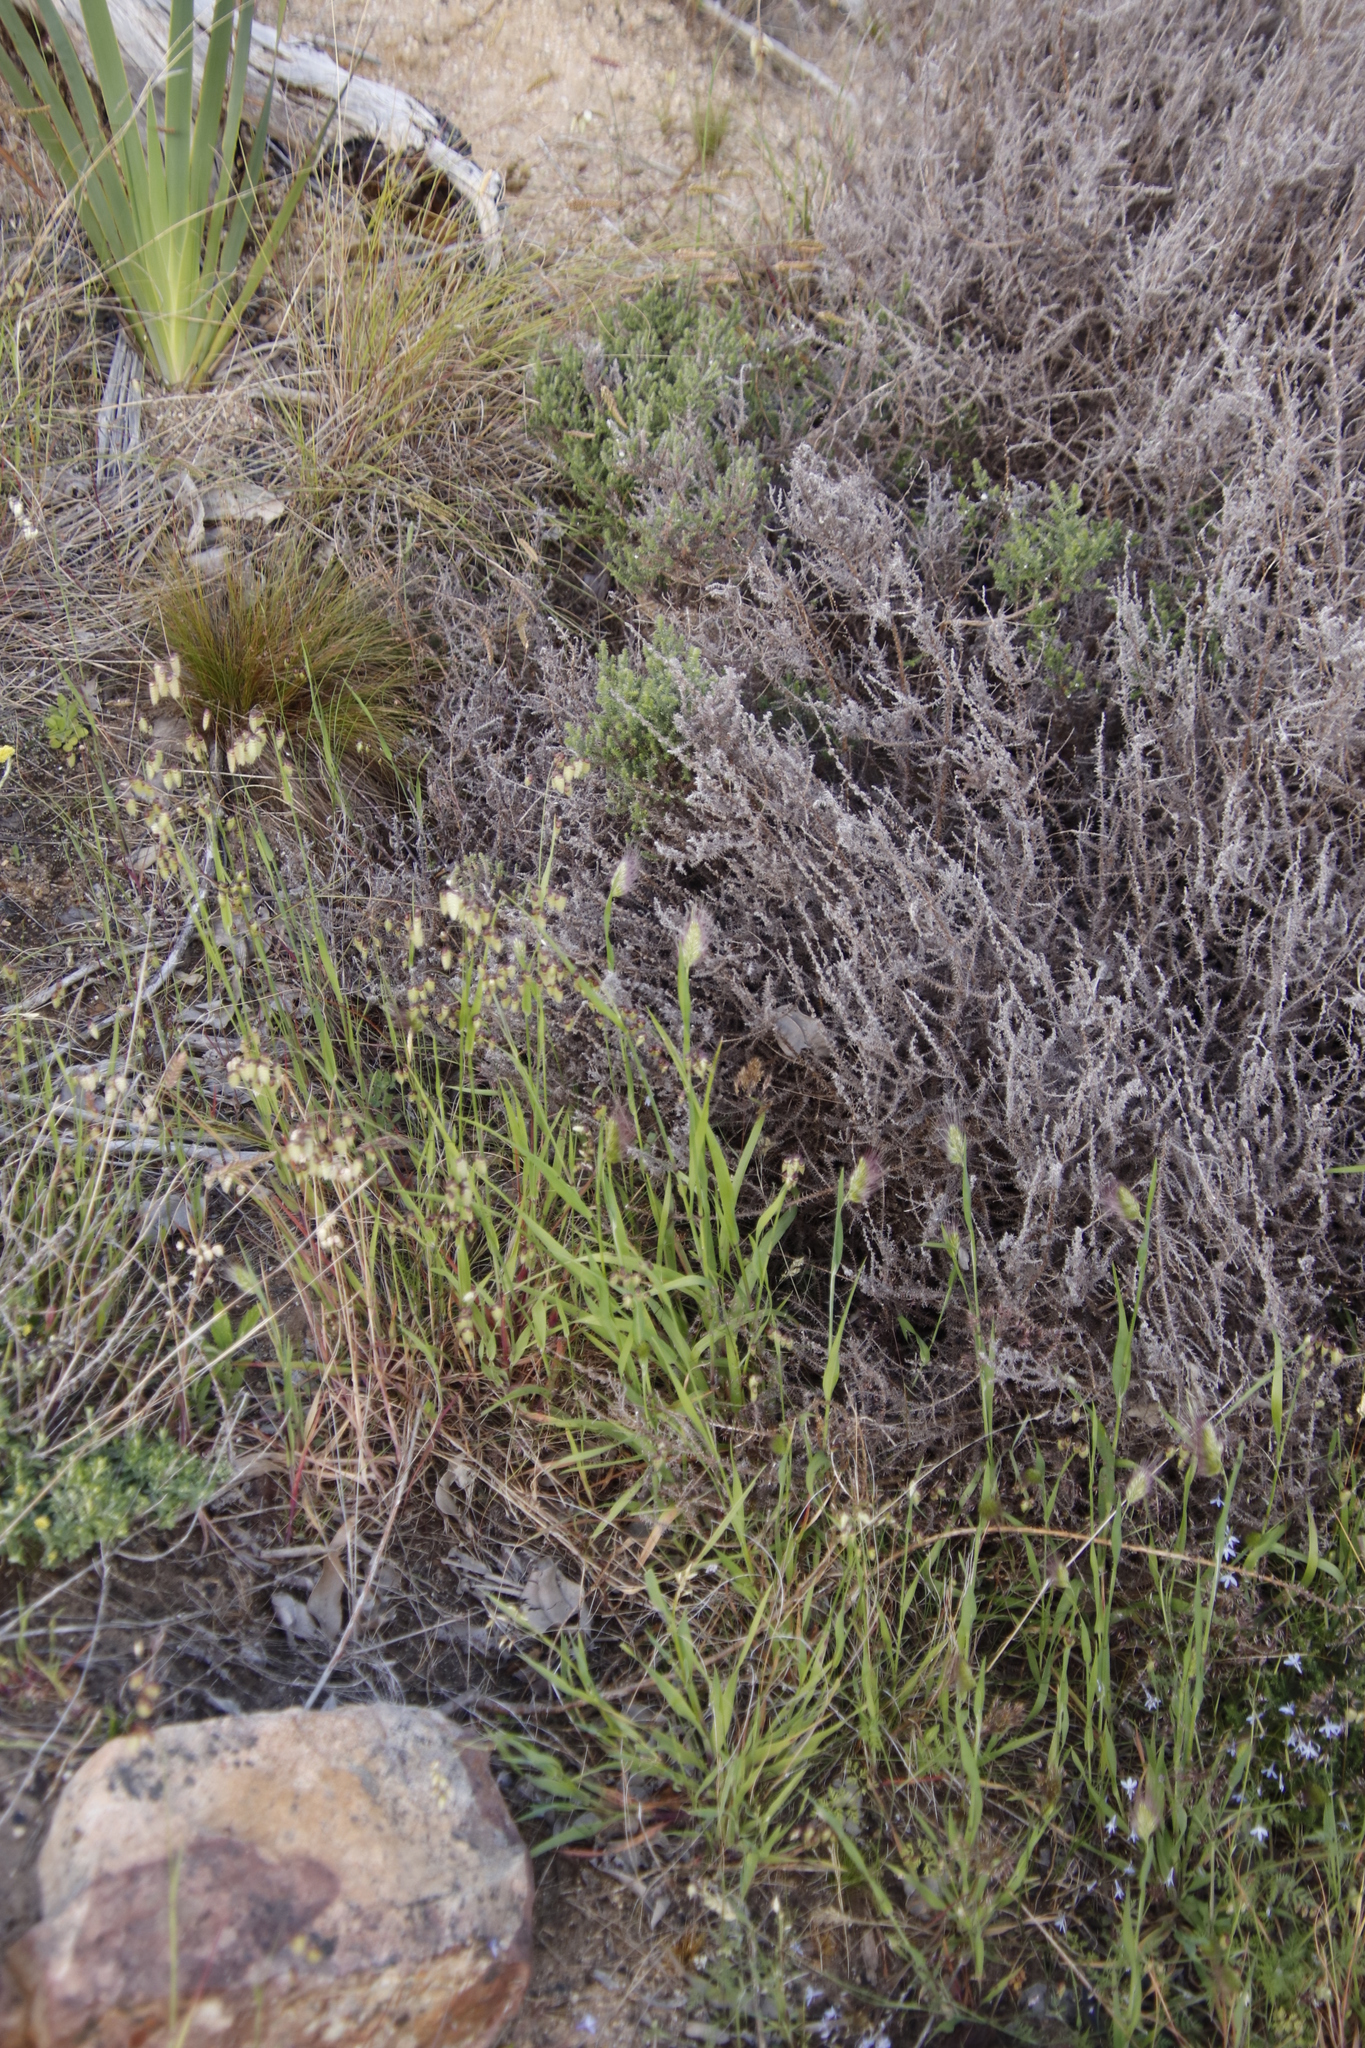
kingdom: Plantae
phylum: Tracheophyta
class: Liliopsida
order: Poales
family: Poaceae
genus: Briza
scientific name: Briza maxima
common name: Big quakinggrass
